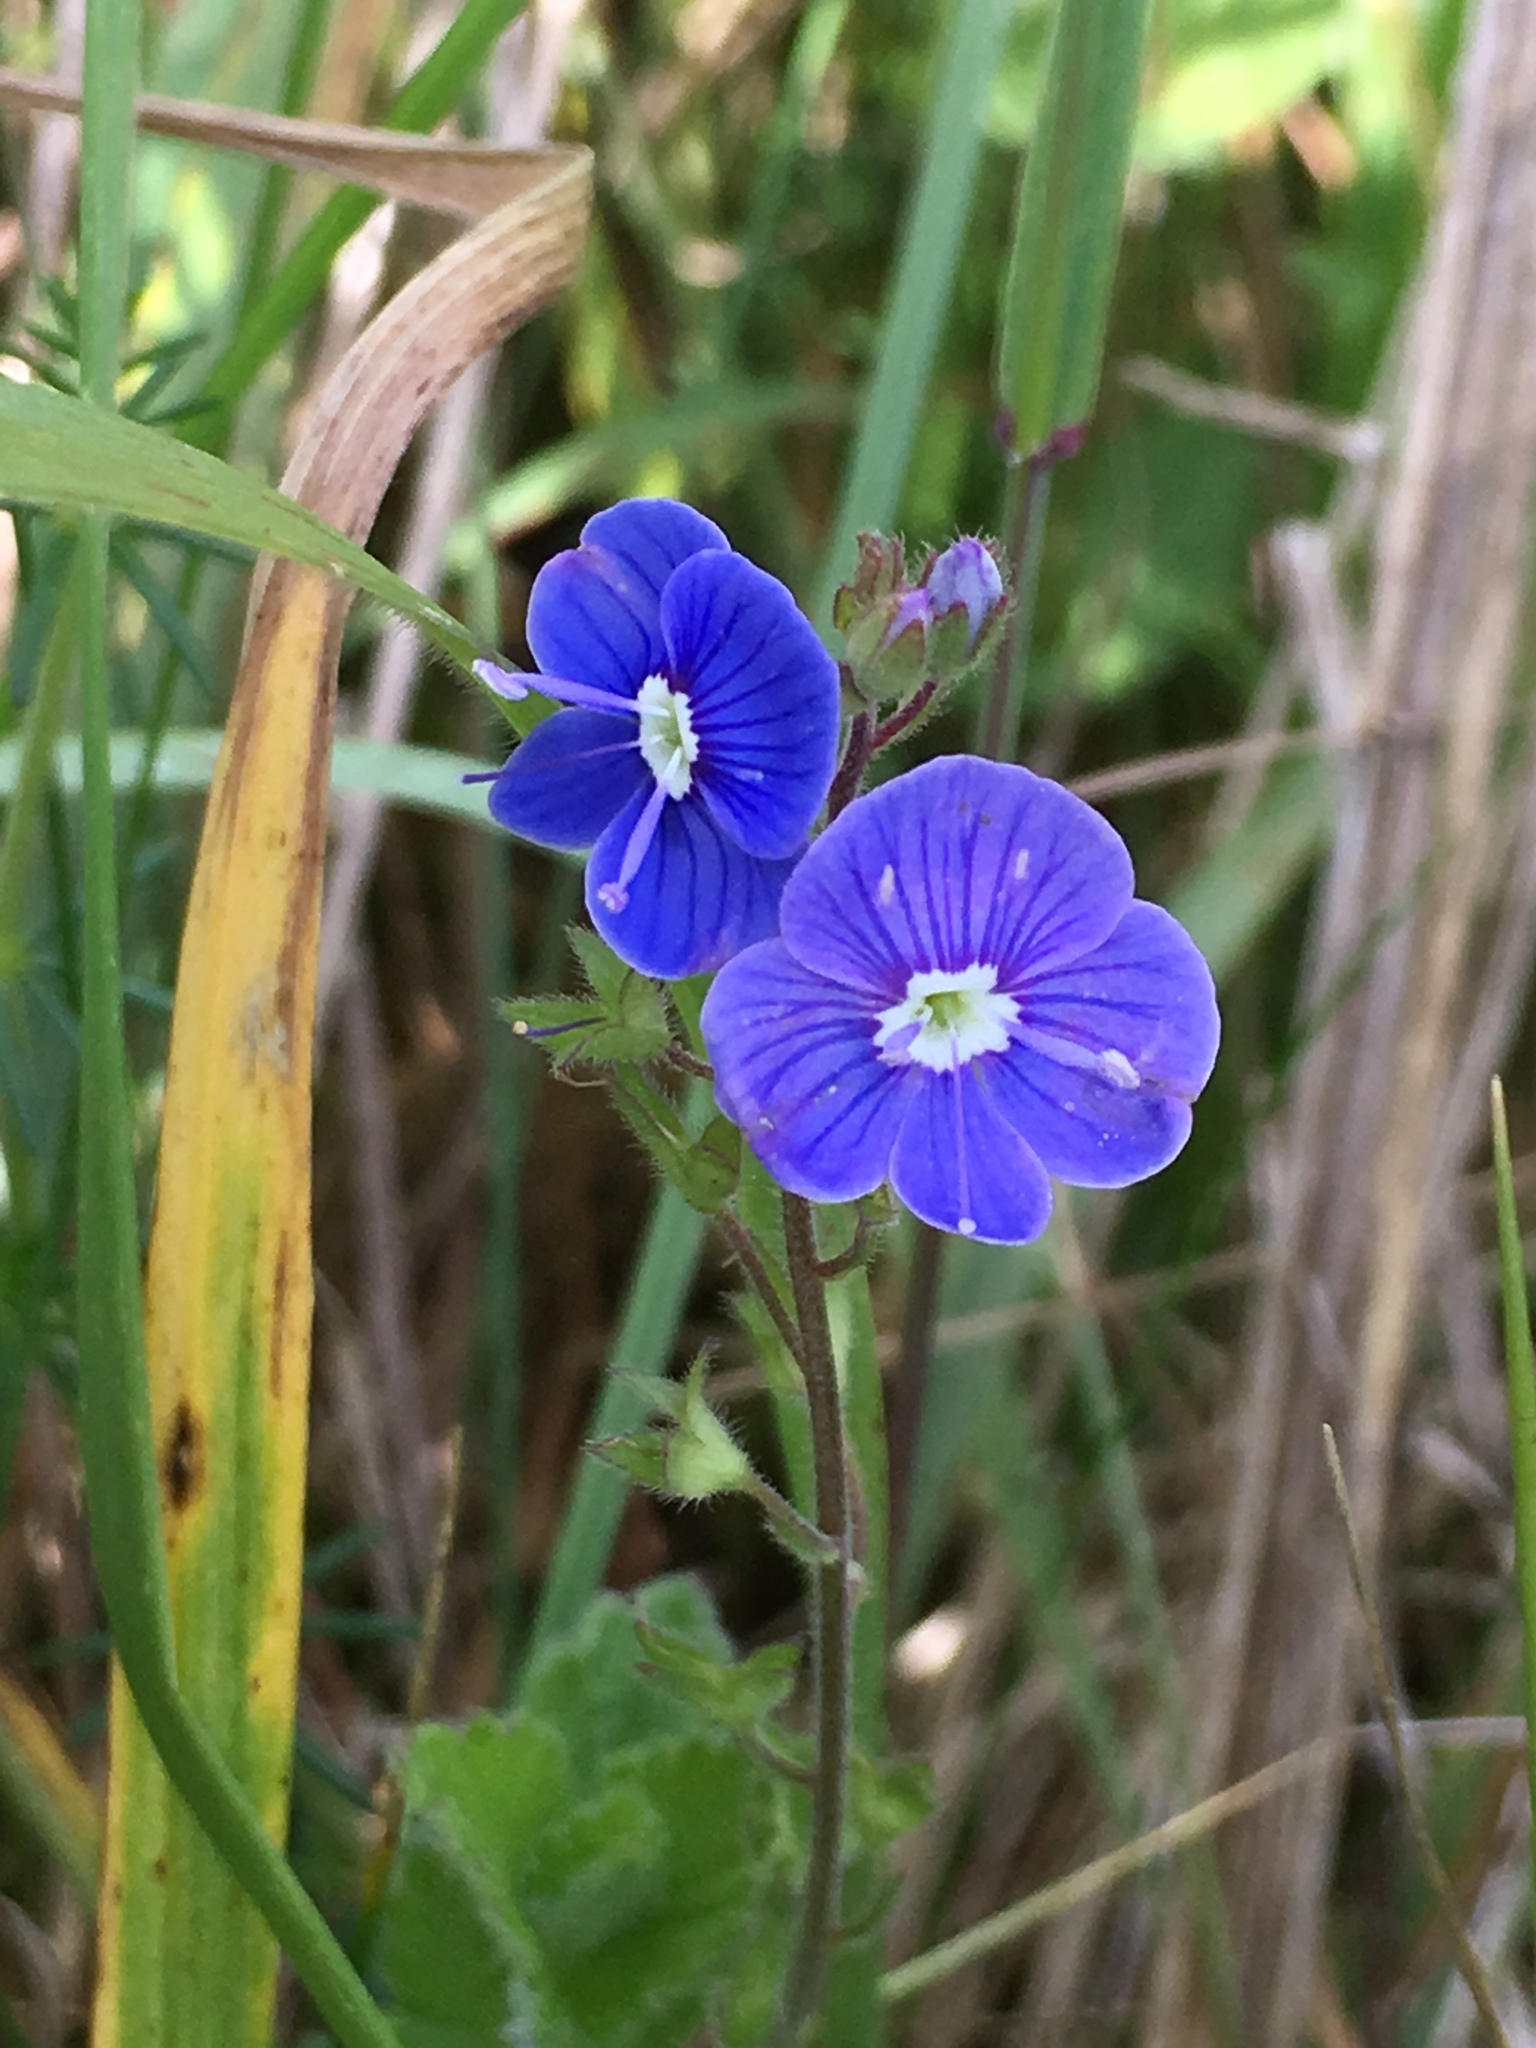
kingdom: Plantae
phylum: Tracheophyta
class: Magnoliopsida
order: Lamiales
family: Plantaginaceae
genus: Veronica
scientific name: Veronica chamaedrys
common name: Germander speedwell
